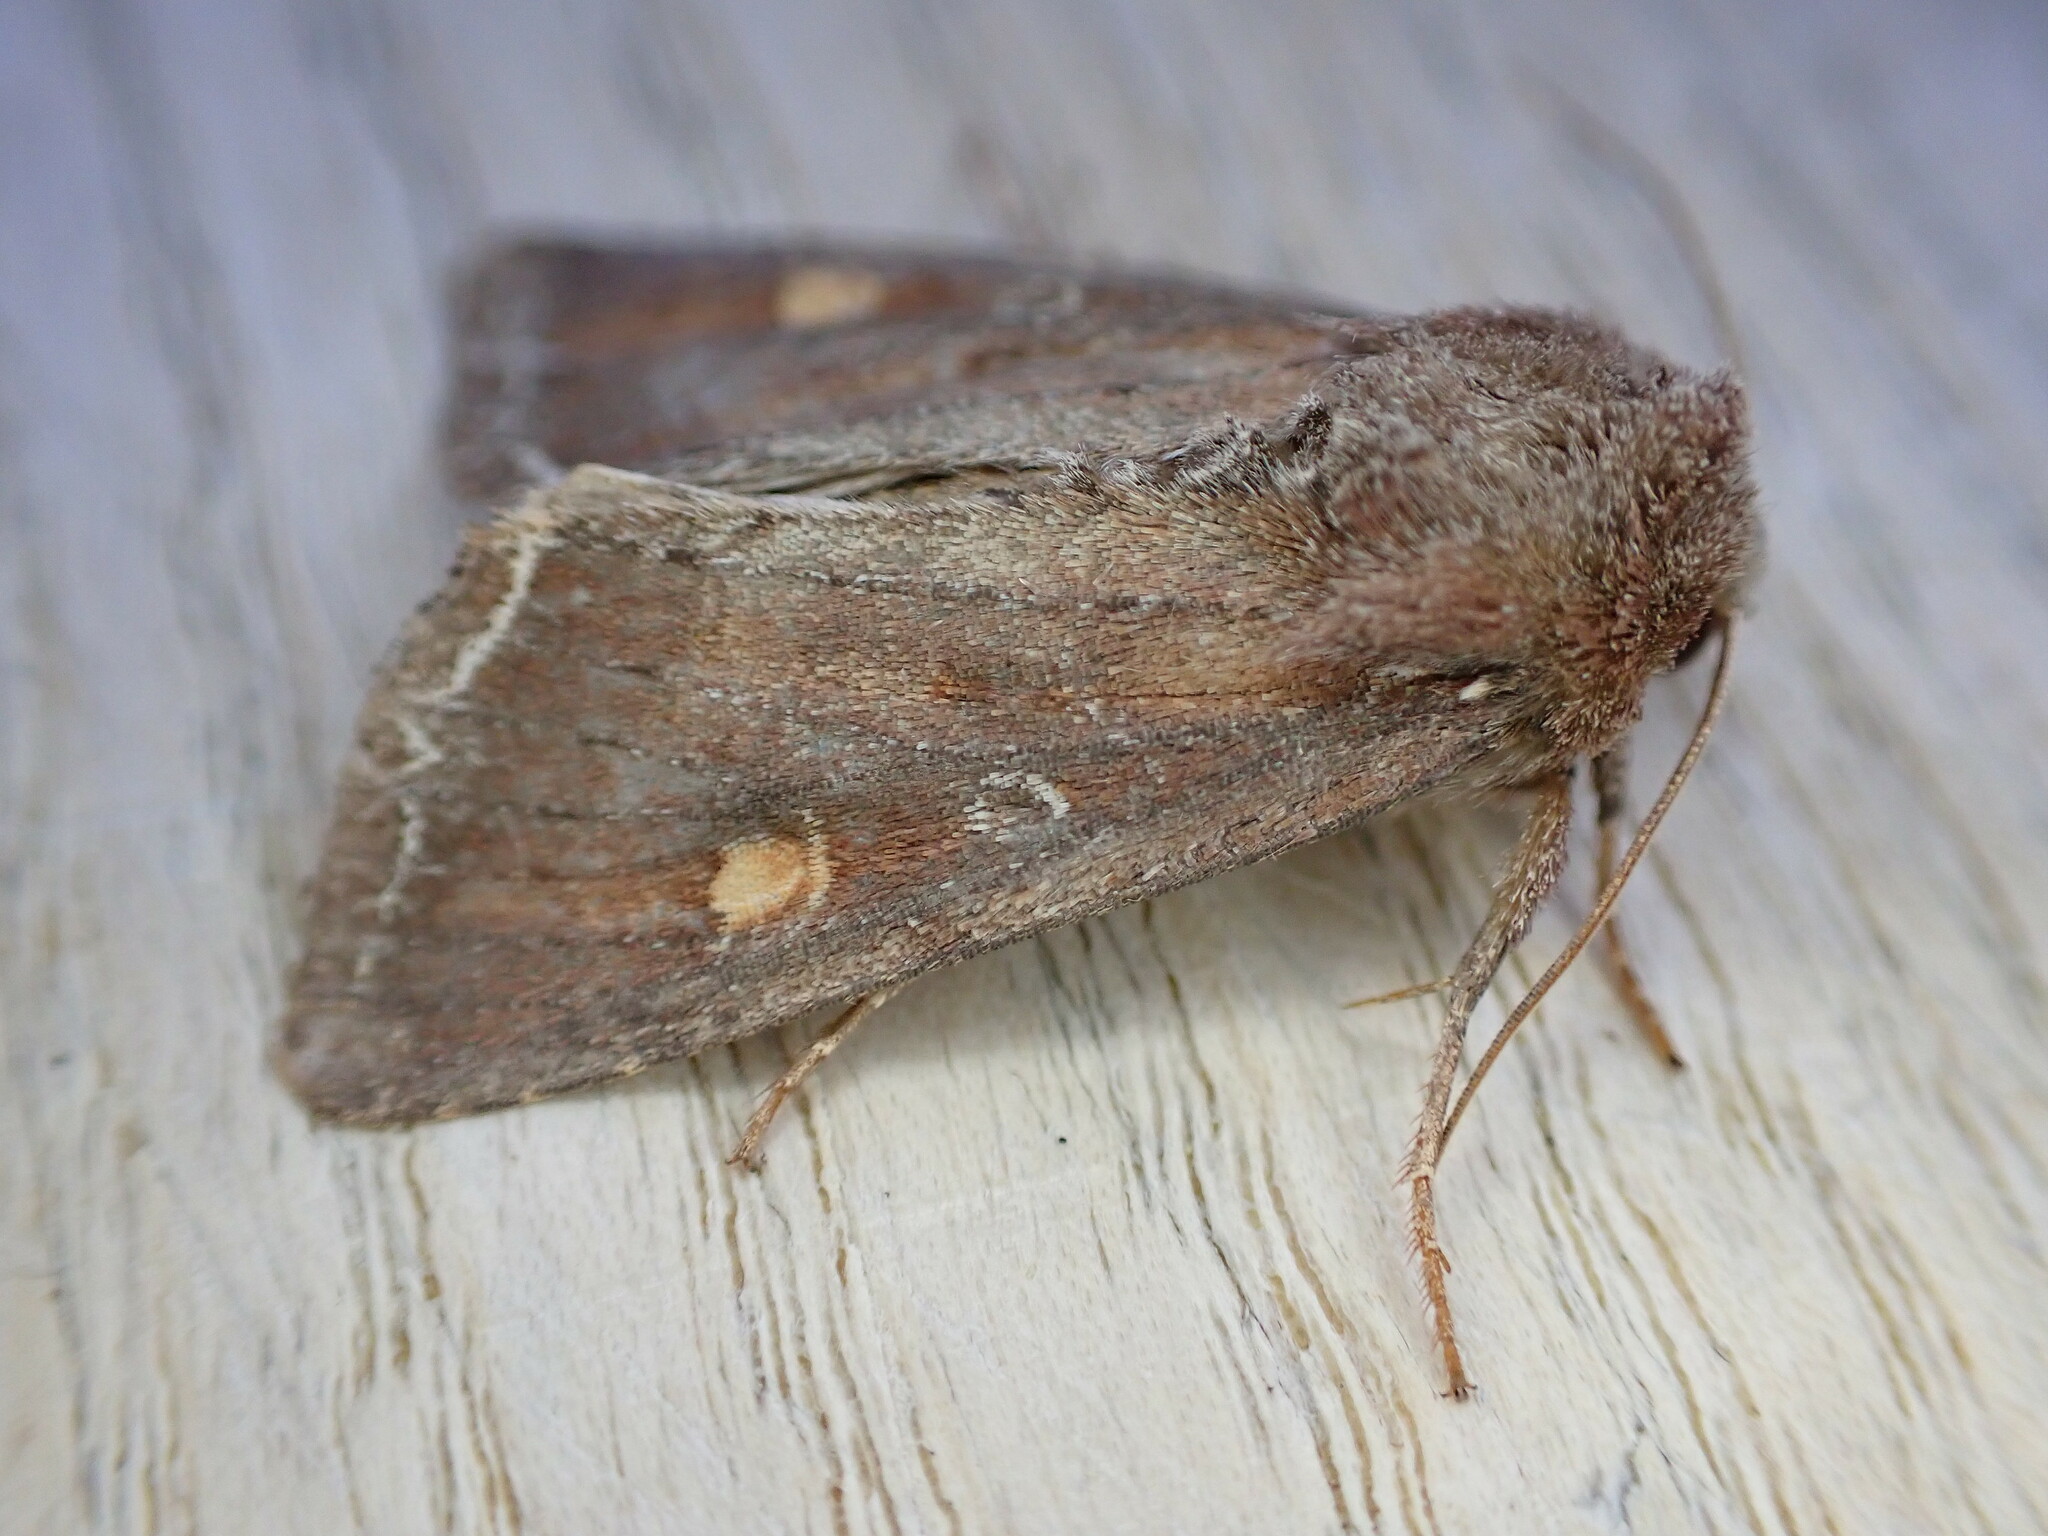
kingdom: Animalia
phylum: Arthropoda
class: Insecta
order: Lepidoptera
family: Noctuidae
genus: Lacanobia
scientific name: Lacanobia oleracea
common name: Bright-line brown-eye
